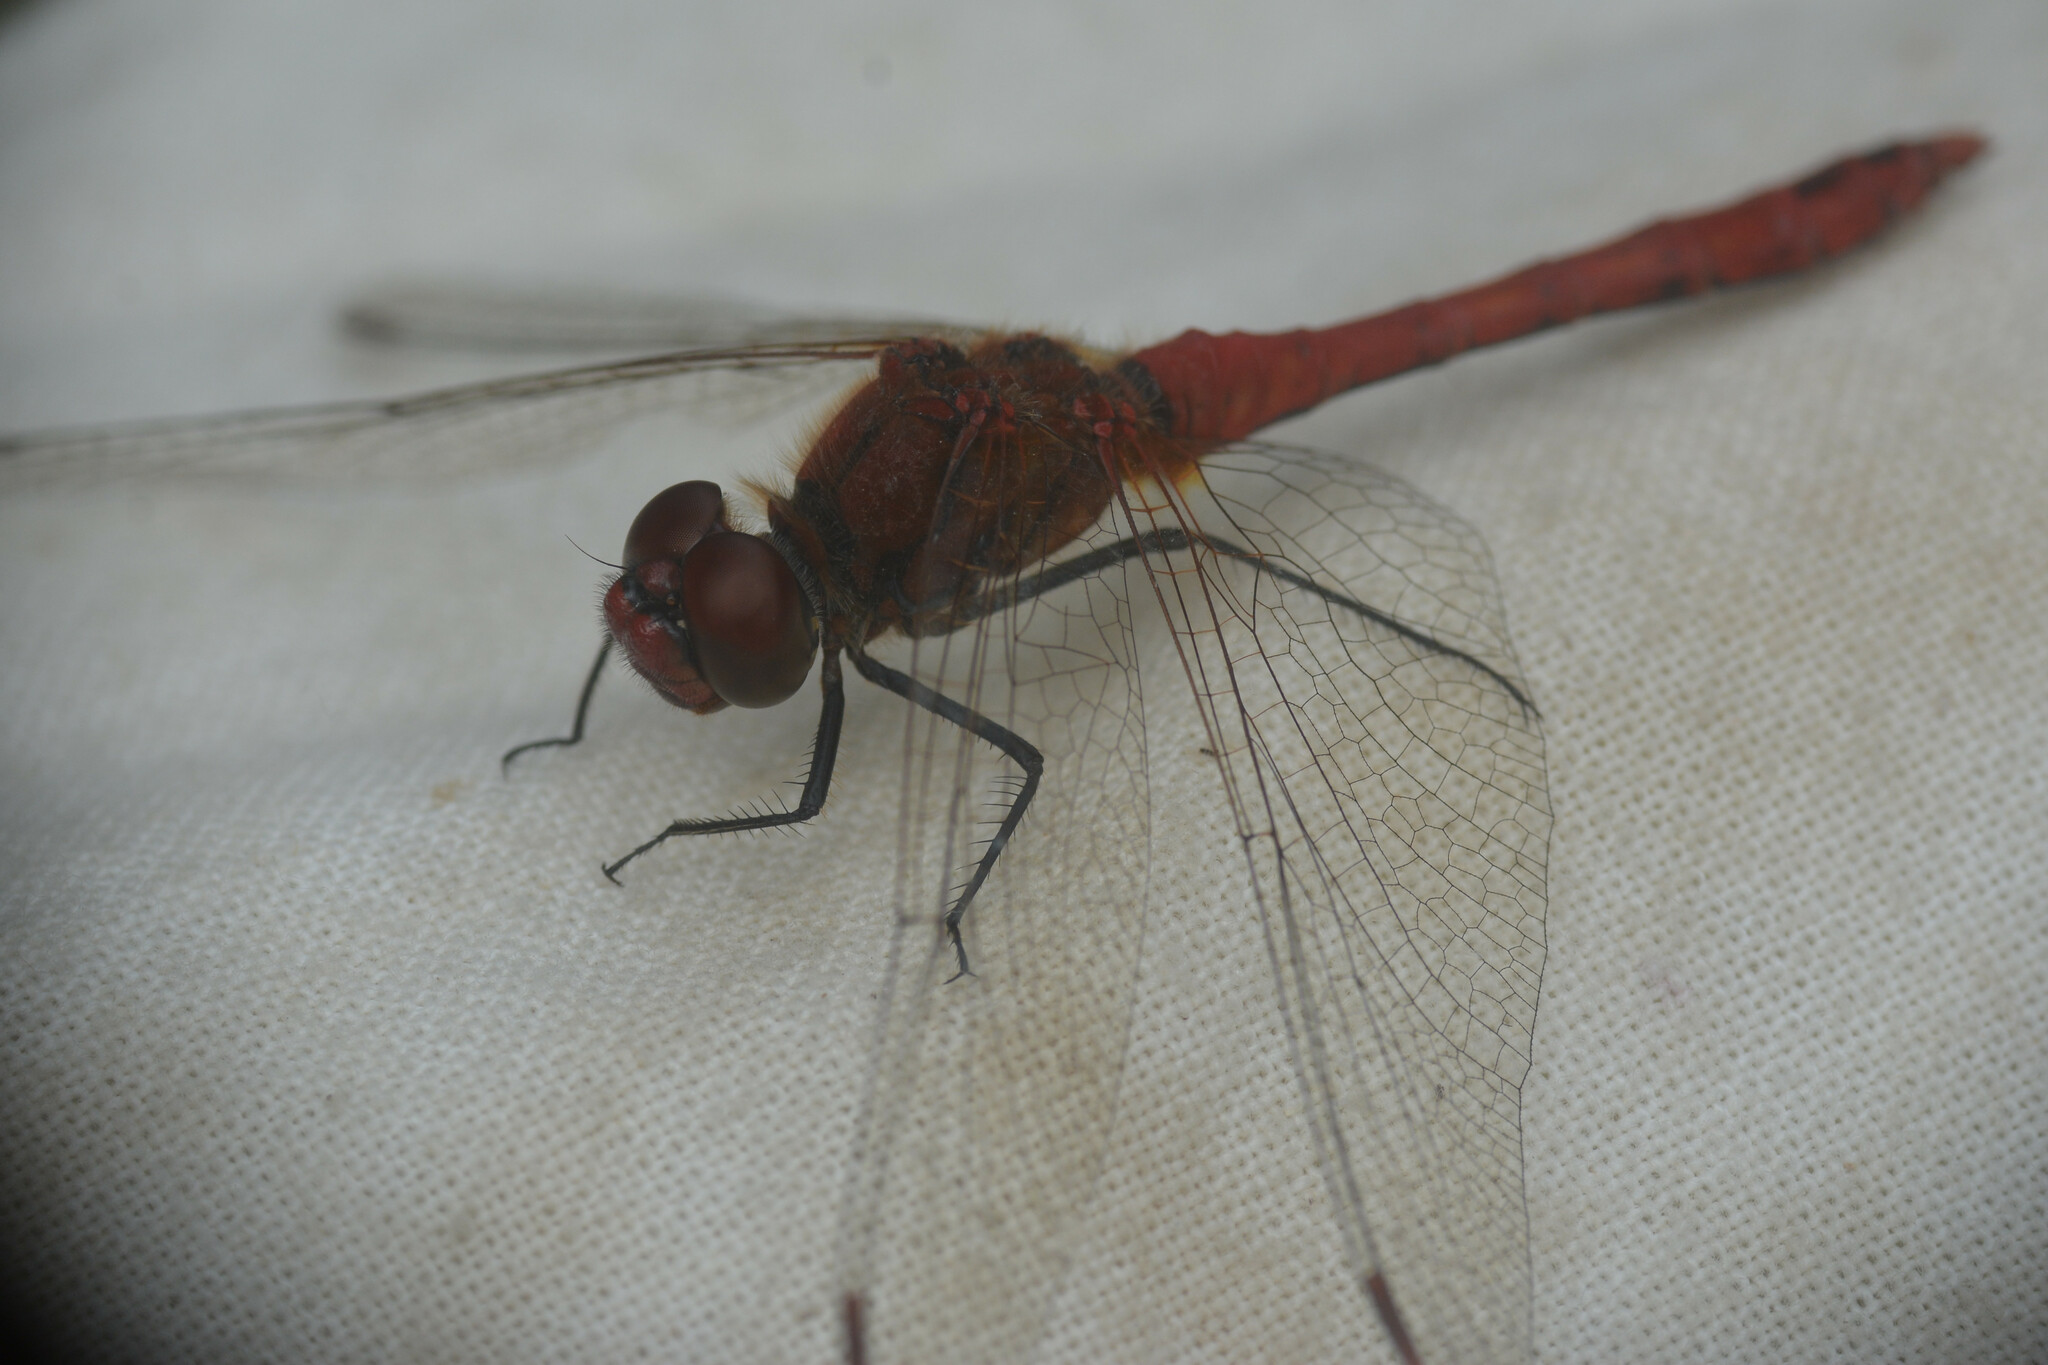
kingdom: Animalia
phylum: Arthropoda
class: Insecta
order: Odonata
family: Libellulidae
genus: Sympetrum
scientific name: Sympetrum sanguineum
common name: Ruddy darter
